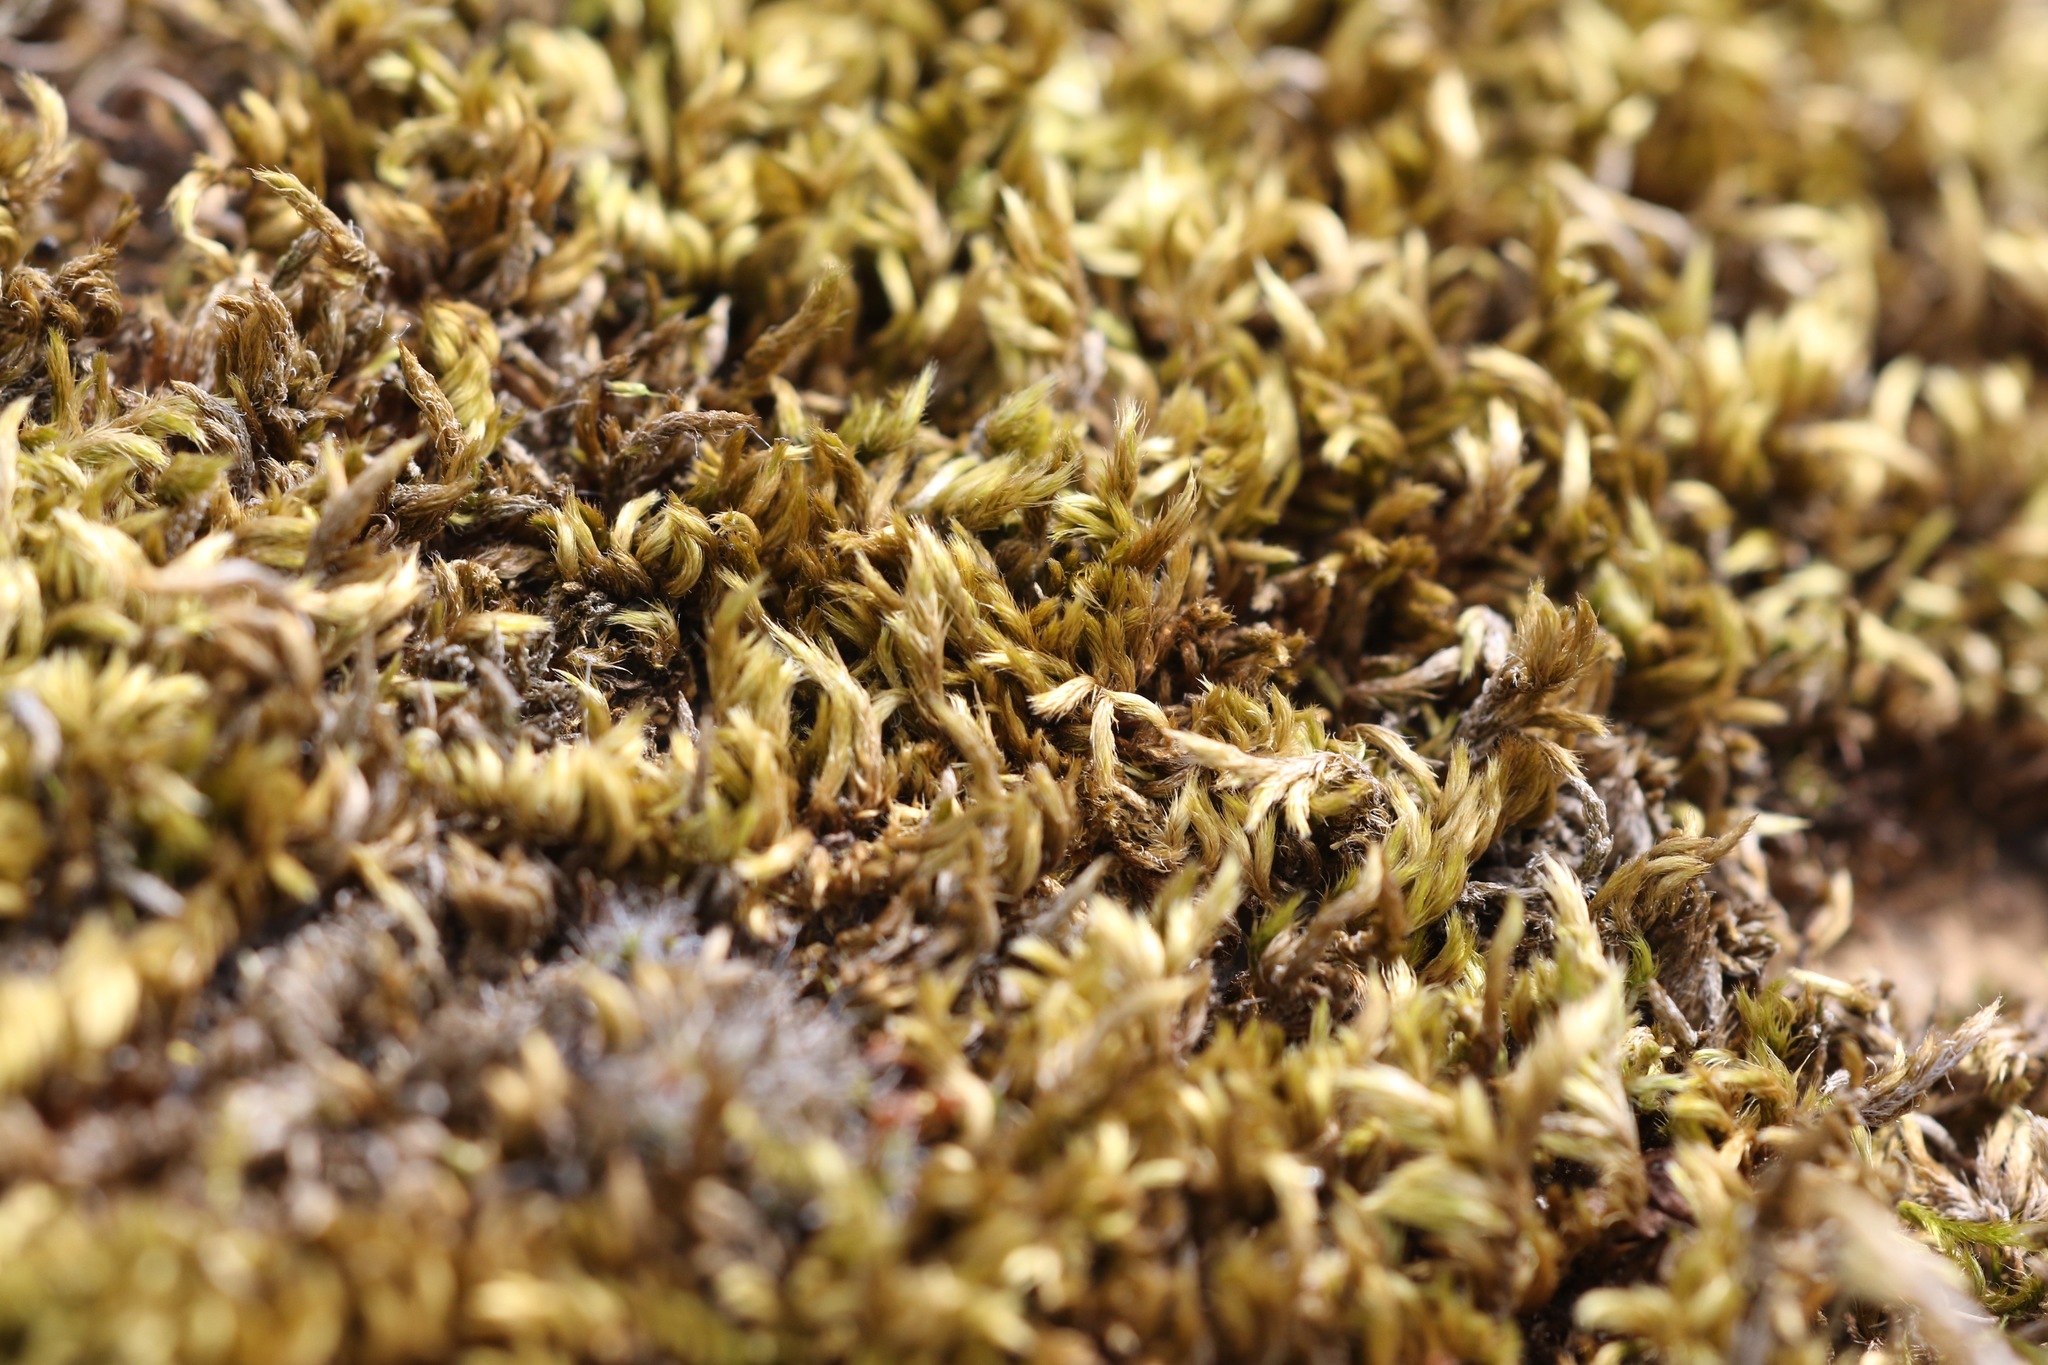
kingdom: Plantae
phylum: Bryophyta
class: Bryopsida
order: Hypnales
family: Brachytheciaceae
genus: Homalothecium
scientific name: Homalothecium sericeum
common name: Silky wall feather-moss
